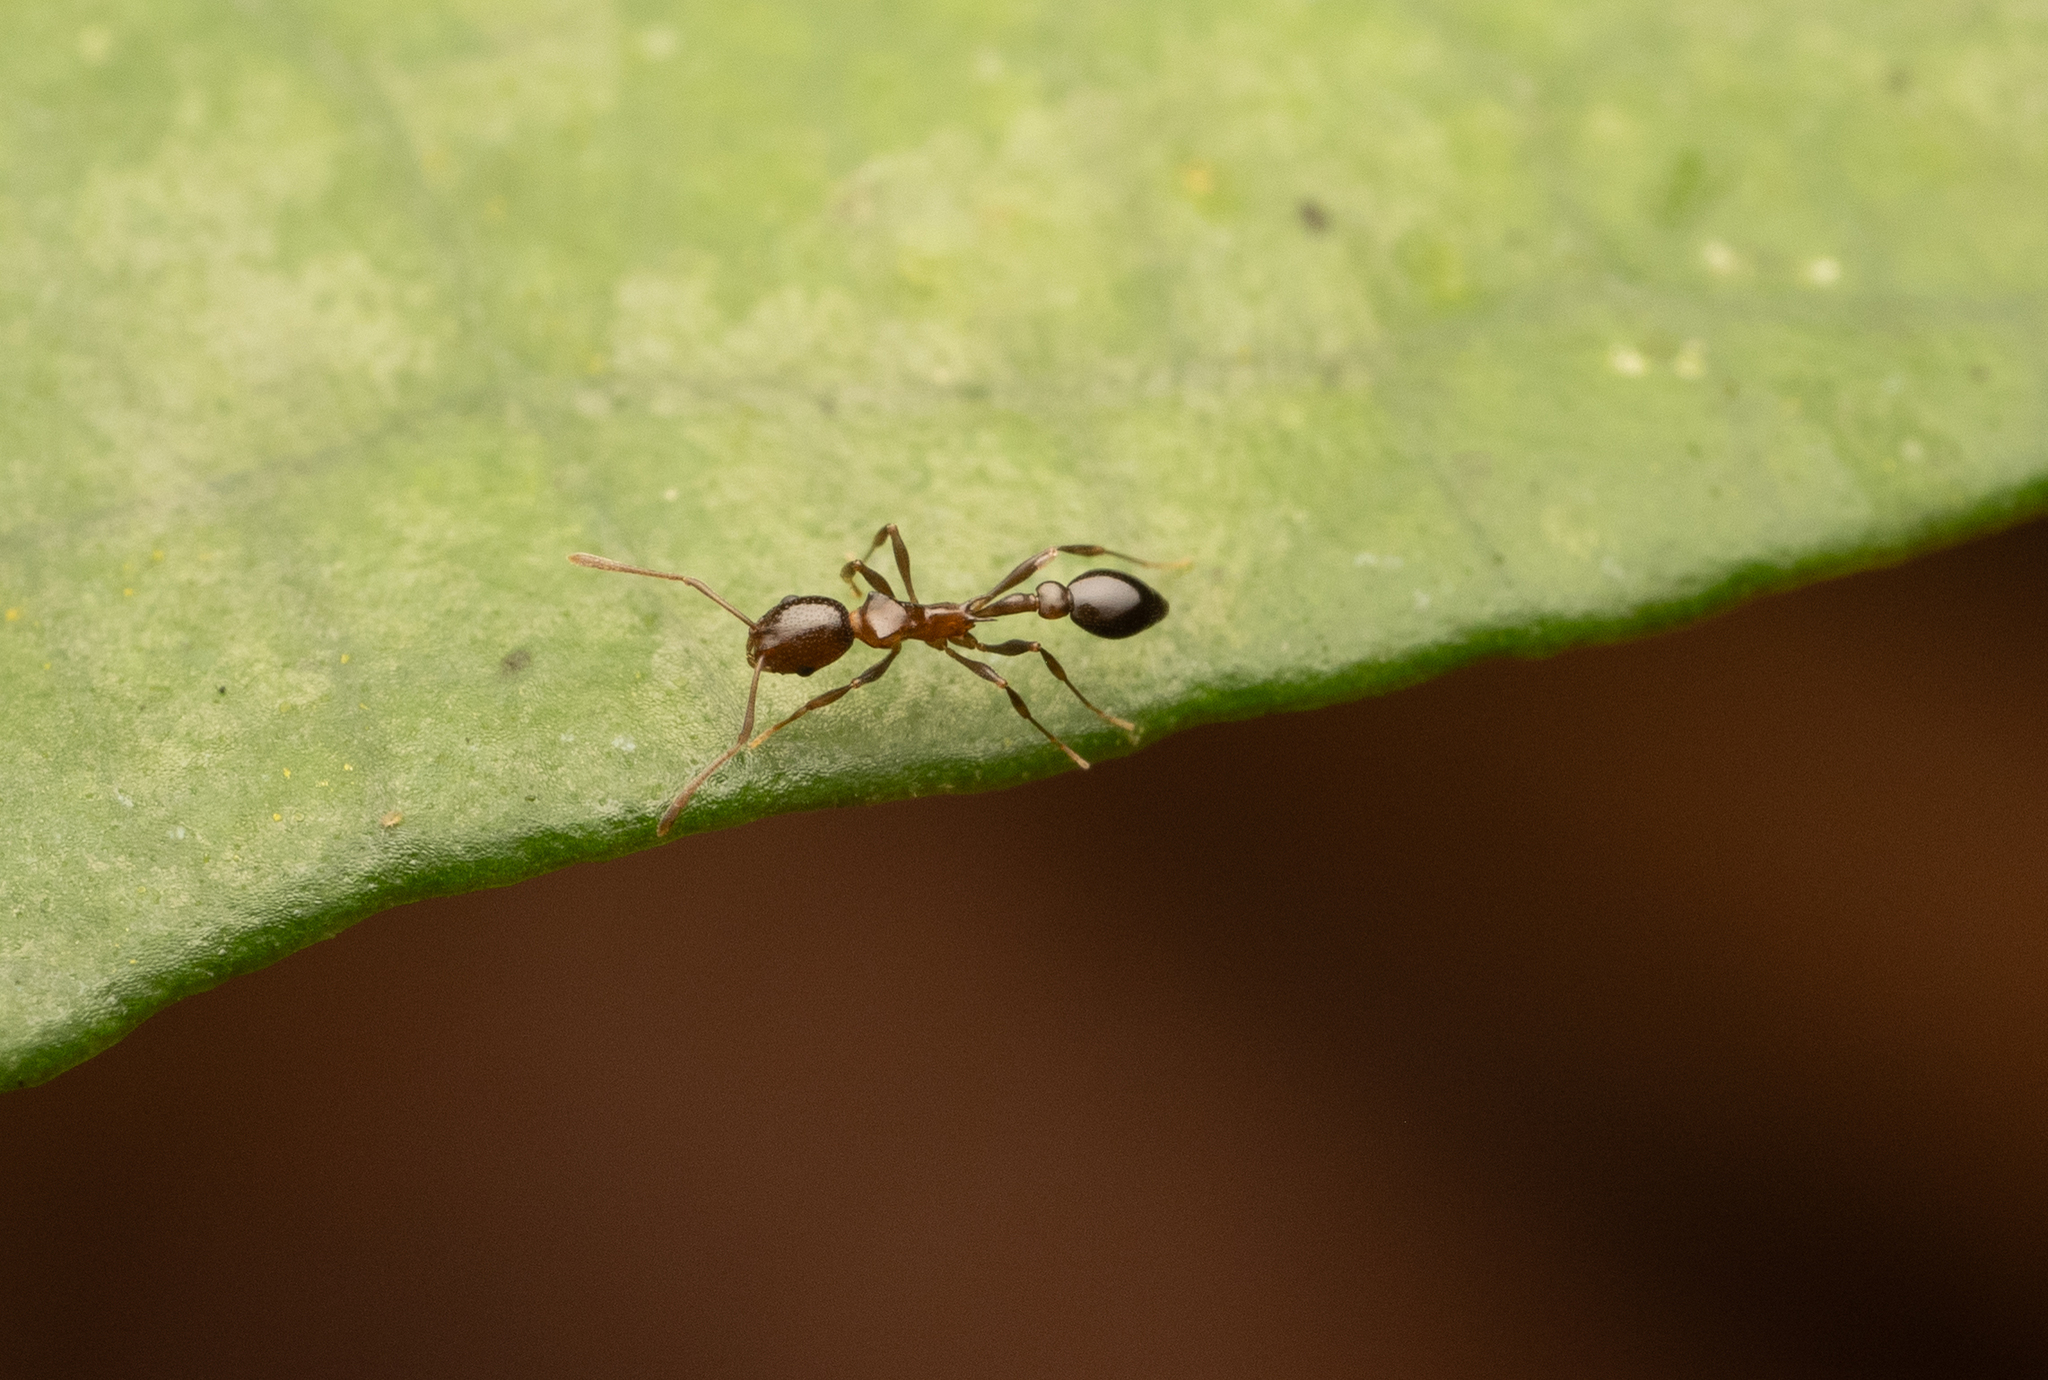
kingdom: Animalia
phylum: Arthropoda
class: Insecta
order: Hymenoptera
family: Formicidae
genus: Cardiocondyla
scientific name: Cardiocondyla paradoxa
